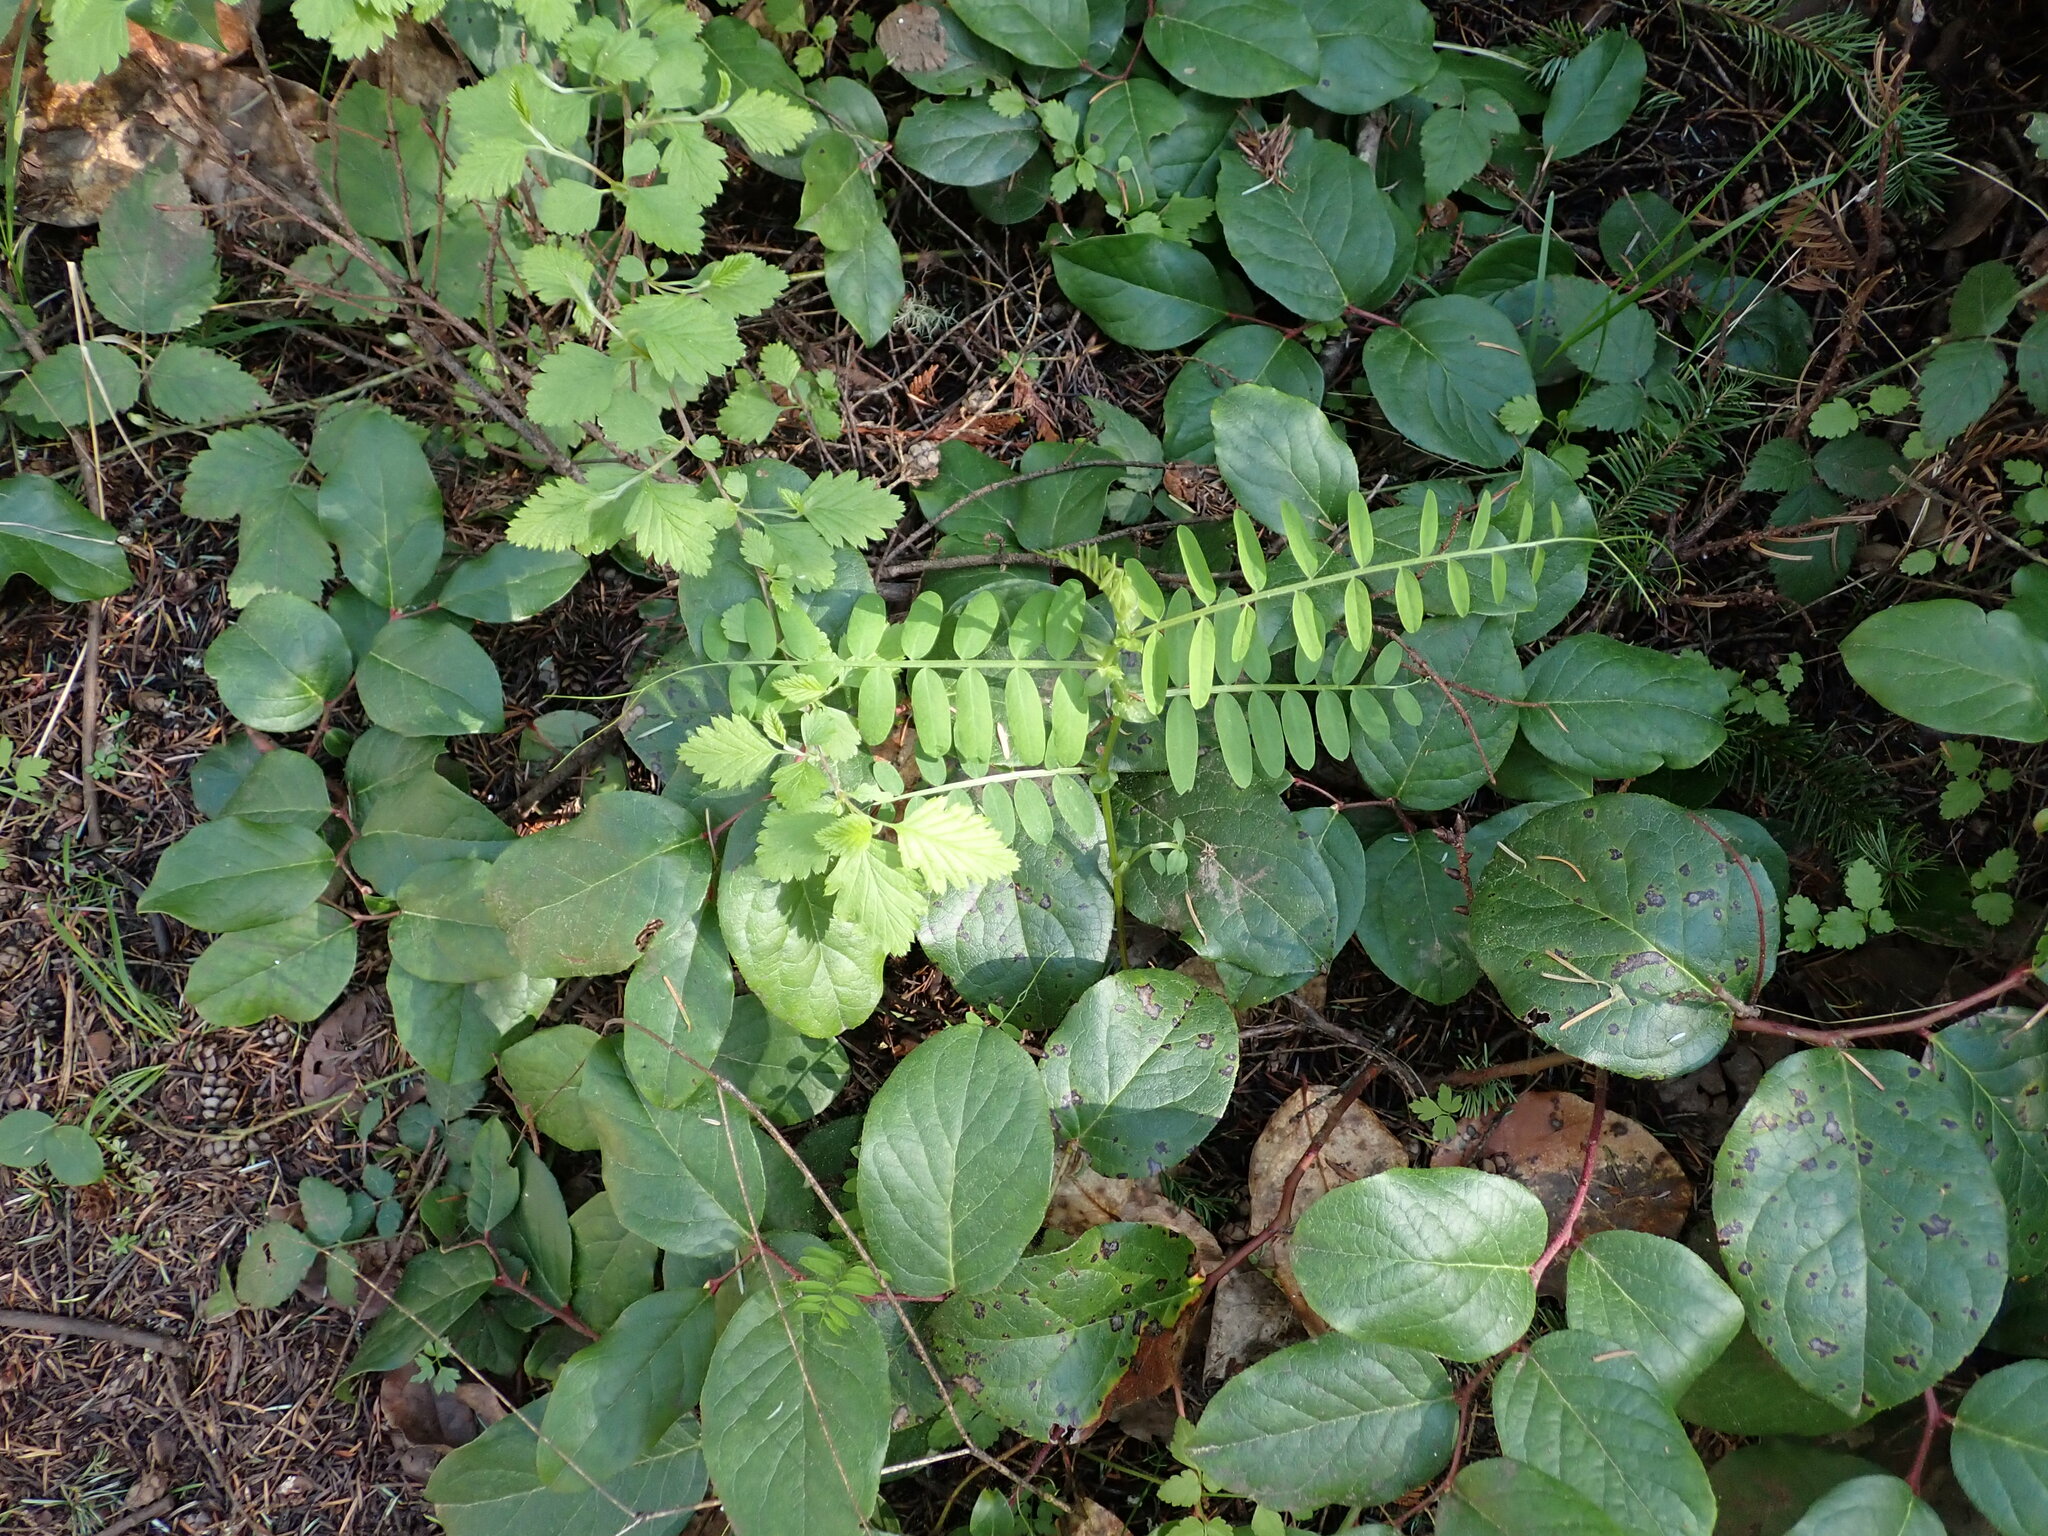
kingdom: Plantae
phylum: Tracheophyta
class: Magnoliopsida
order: Fabales
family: Fabaceae
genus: Vicia
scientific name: Vicia
